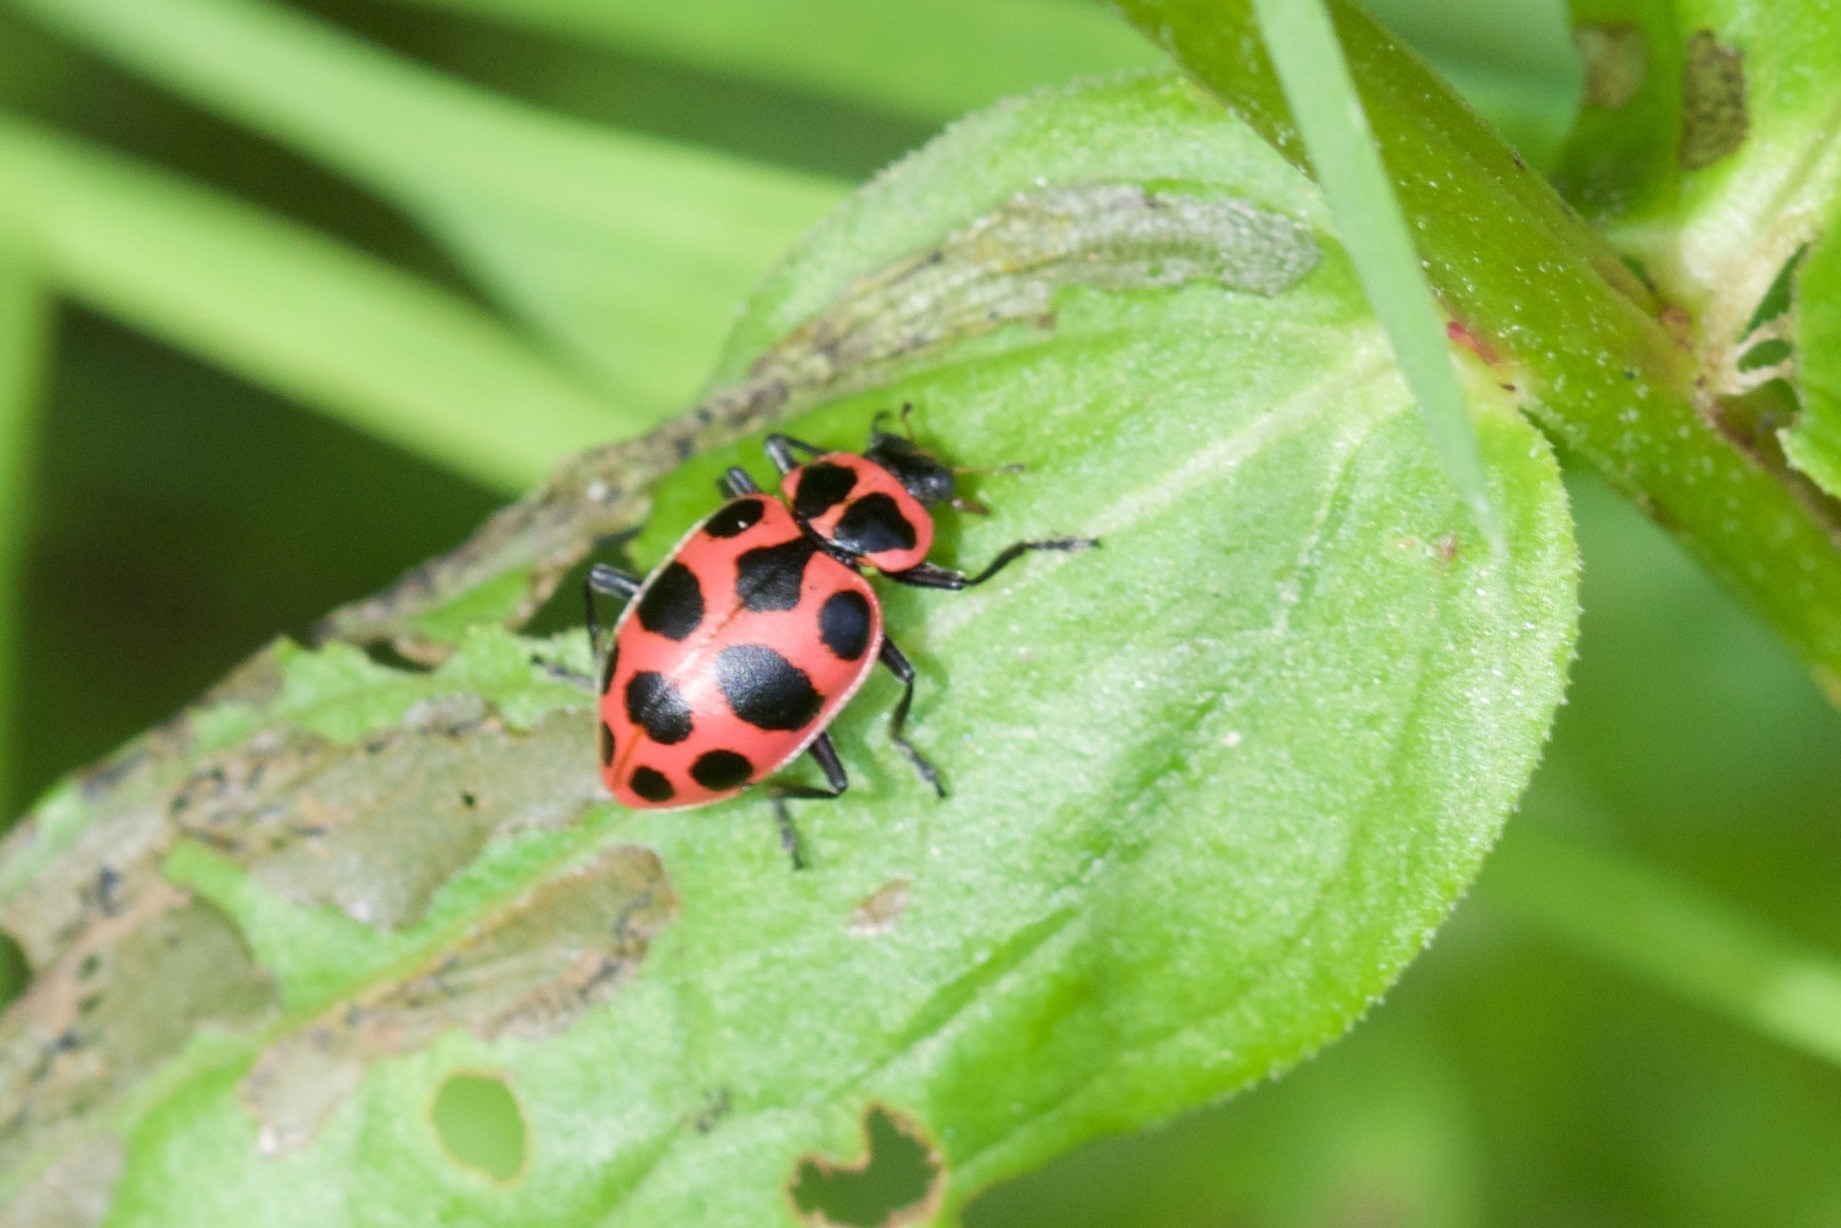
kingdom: Animalia
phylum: Arthropoda
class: Insecta
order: Coleoptera
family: Coccinellidae
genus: Coleomegilla
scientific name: Coleomegilla maculata
